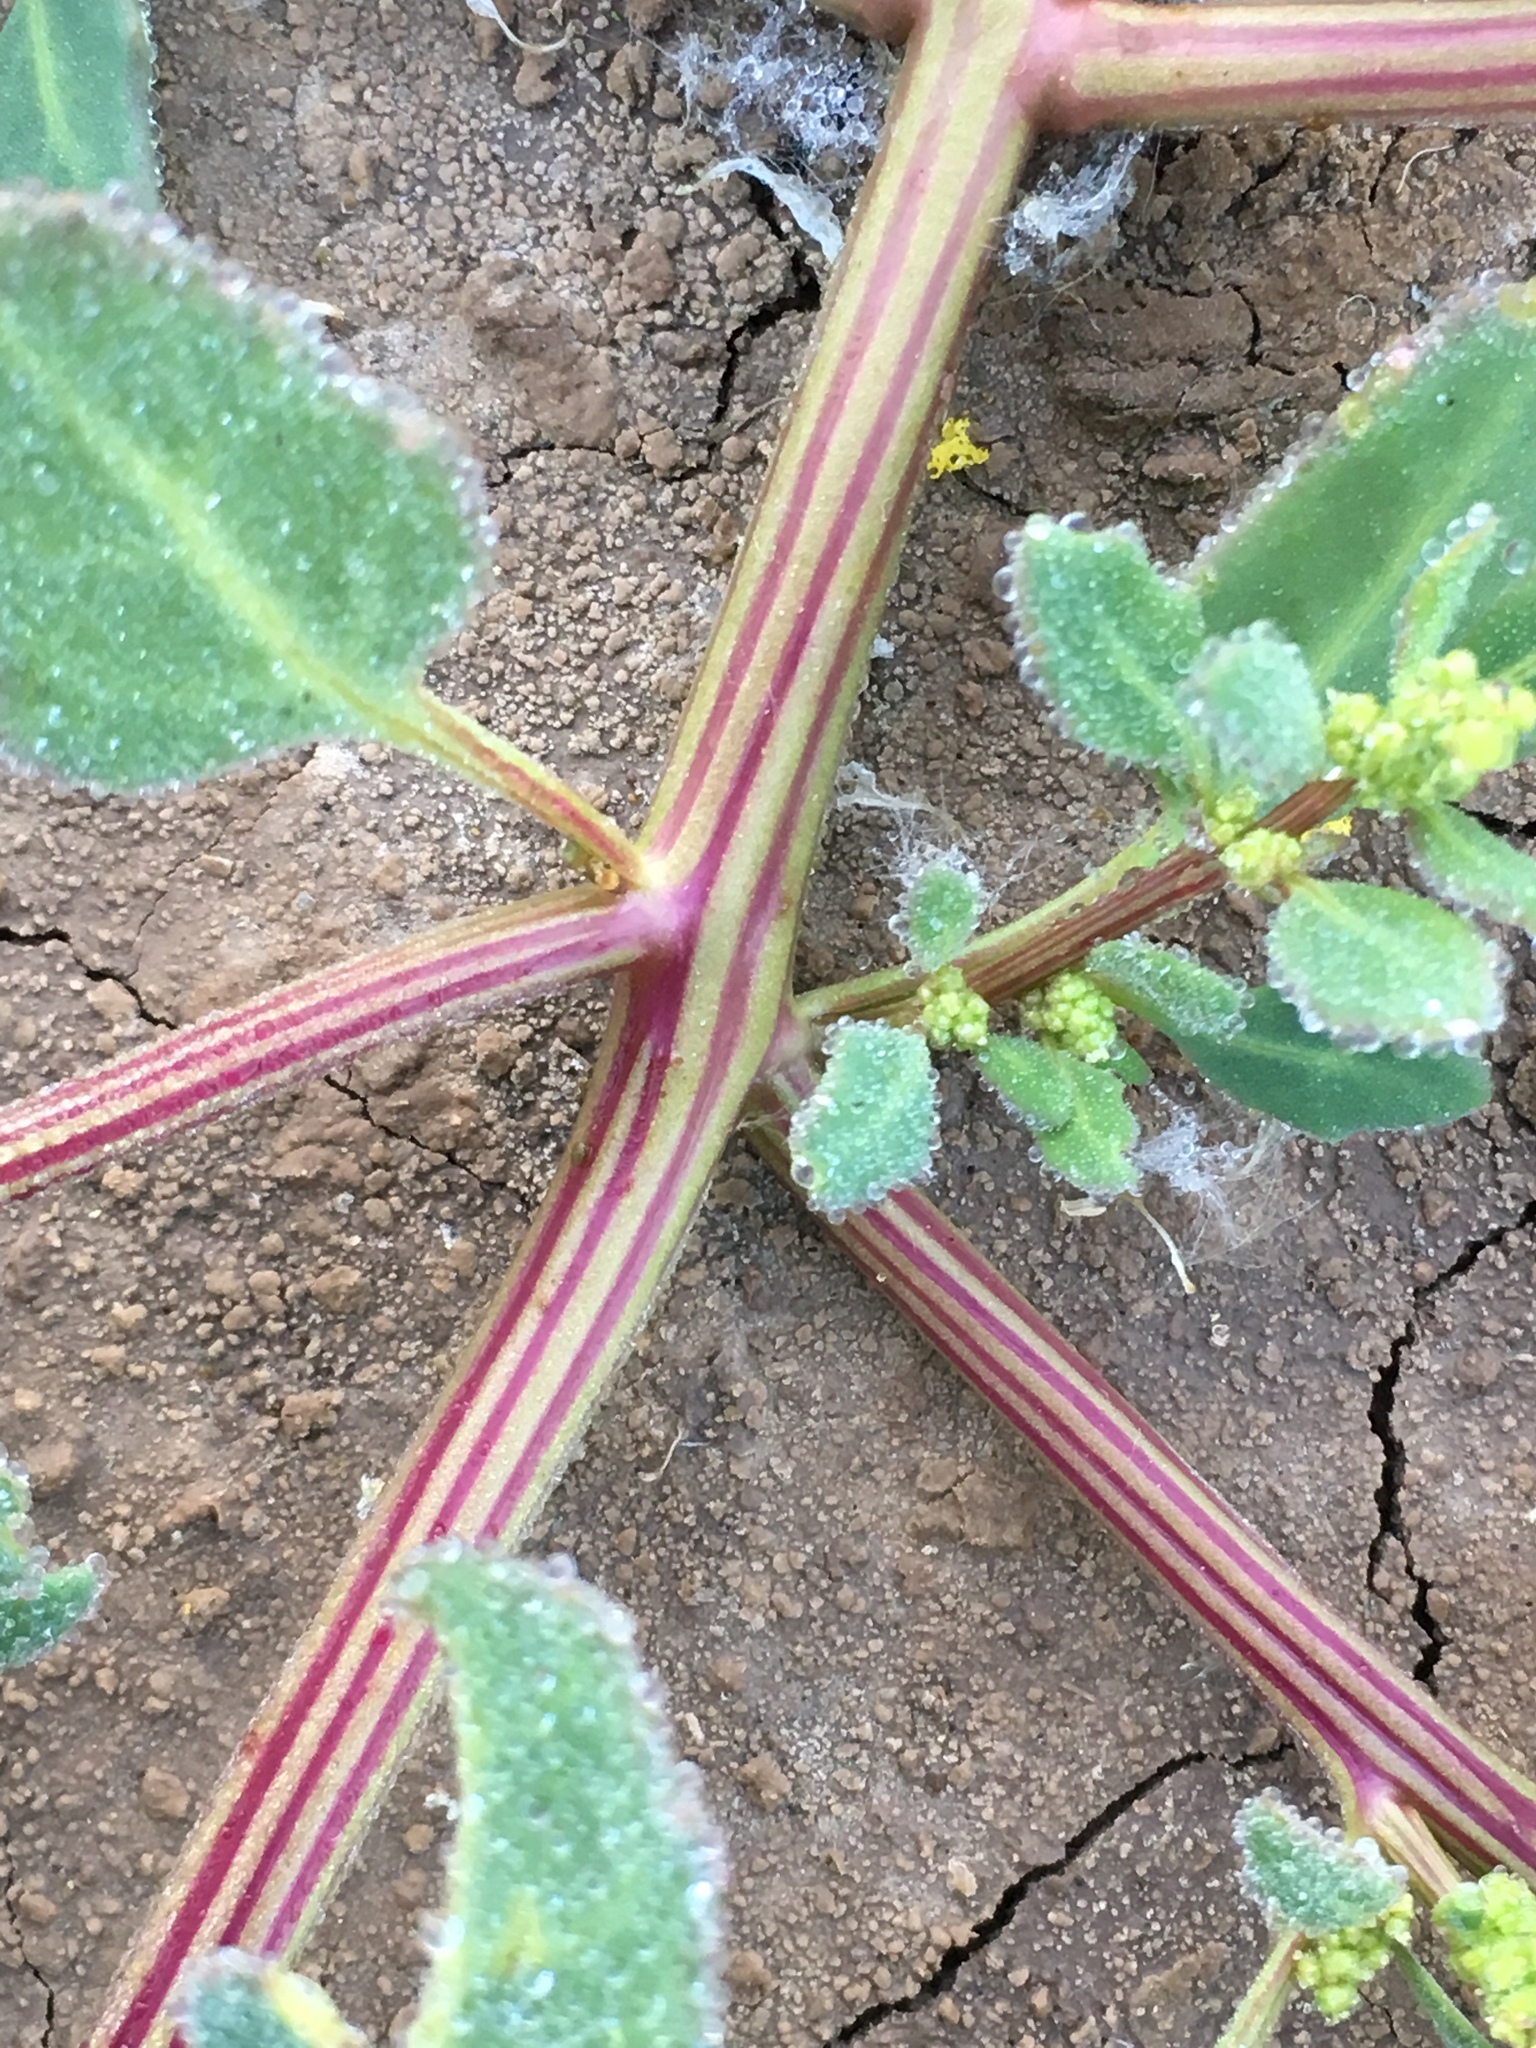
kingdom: Plantae
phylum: Tracheophyta
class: Magnoliopsida
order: Caryophyllales
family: Amaranthaceae
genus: Oxybasis
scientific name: Oxybasis glauca
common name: Glaucous goosefoot
